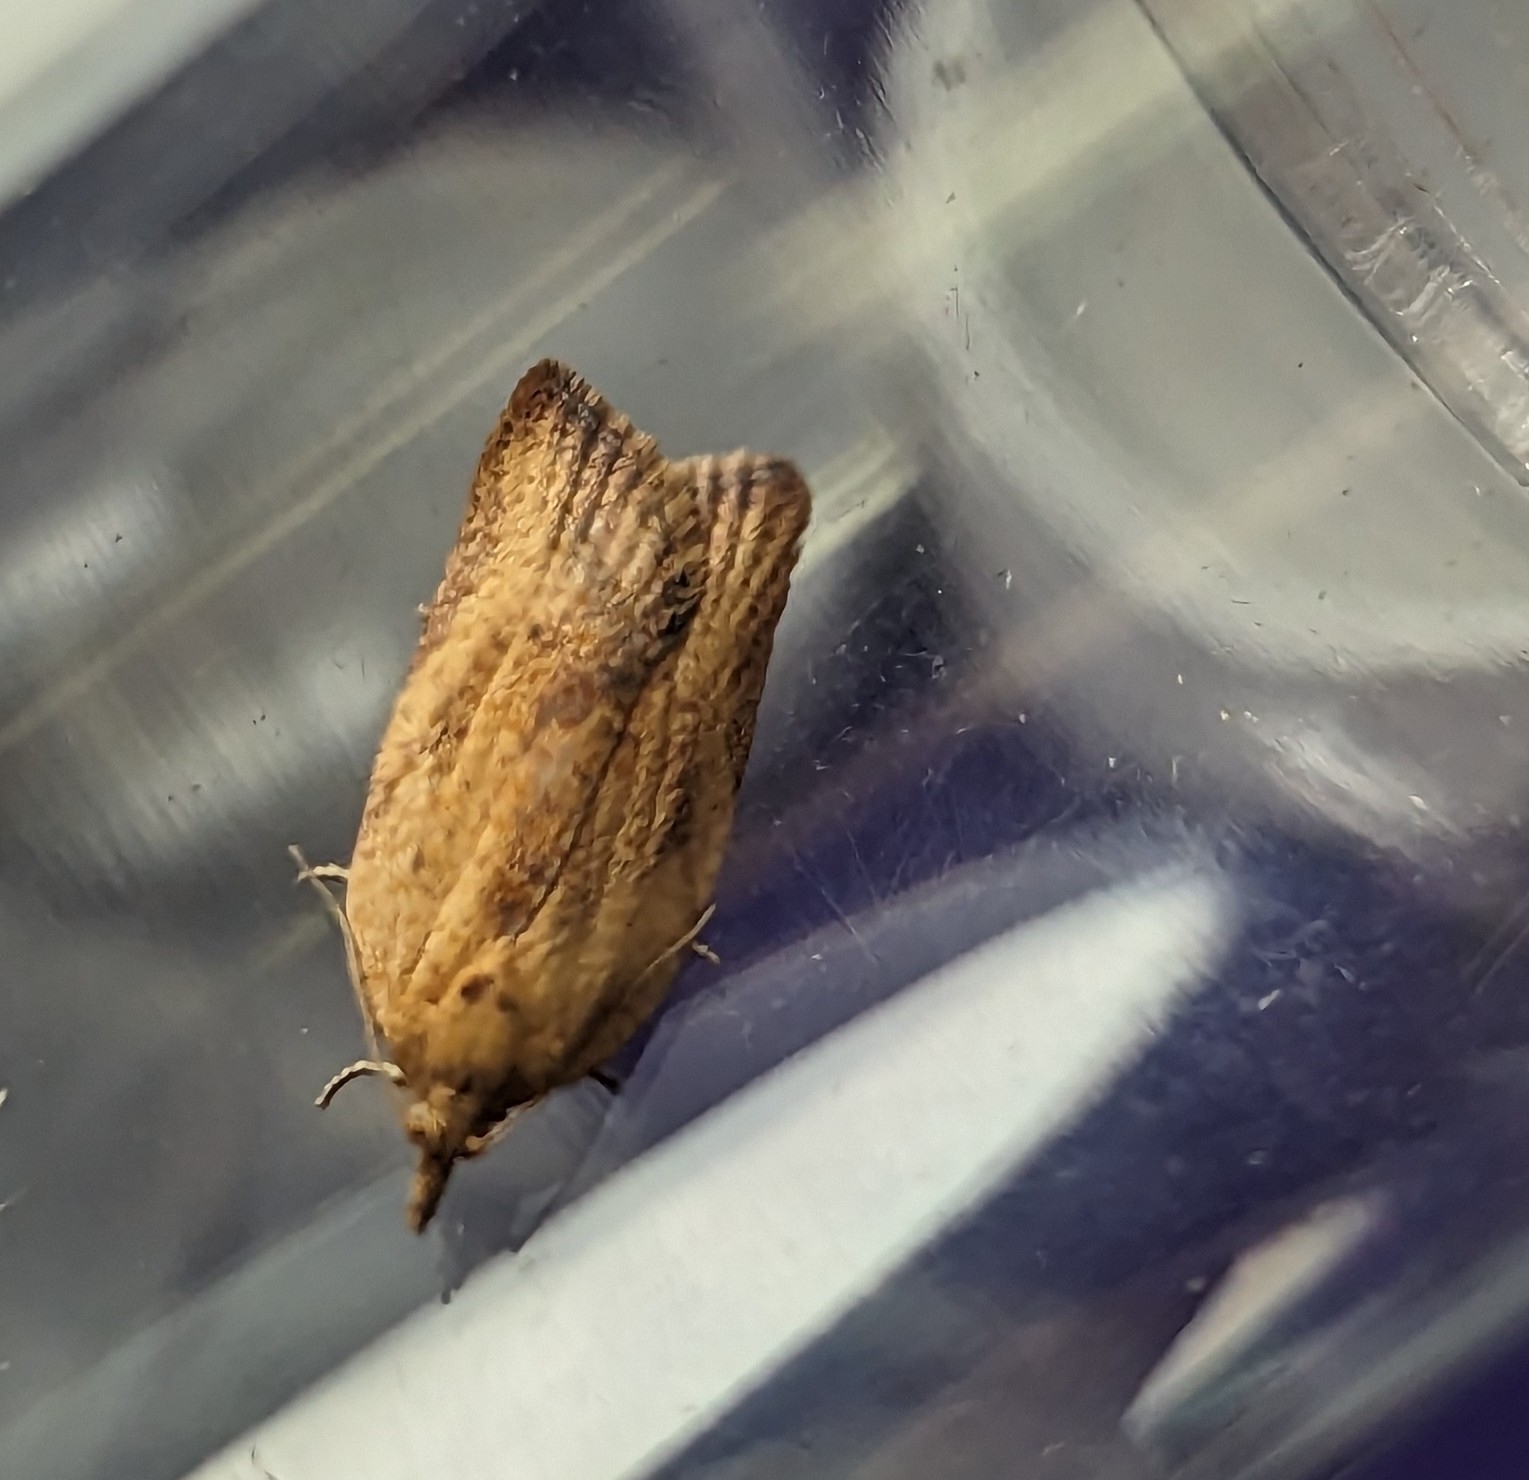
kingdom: Animalia
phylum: Arthropoda
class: Insecta
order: Lepidoptera
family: Tortricidae
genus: Epiphyas
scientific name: Epiphyas postvittana
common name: Light brown apple moth
